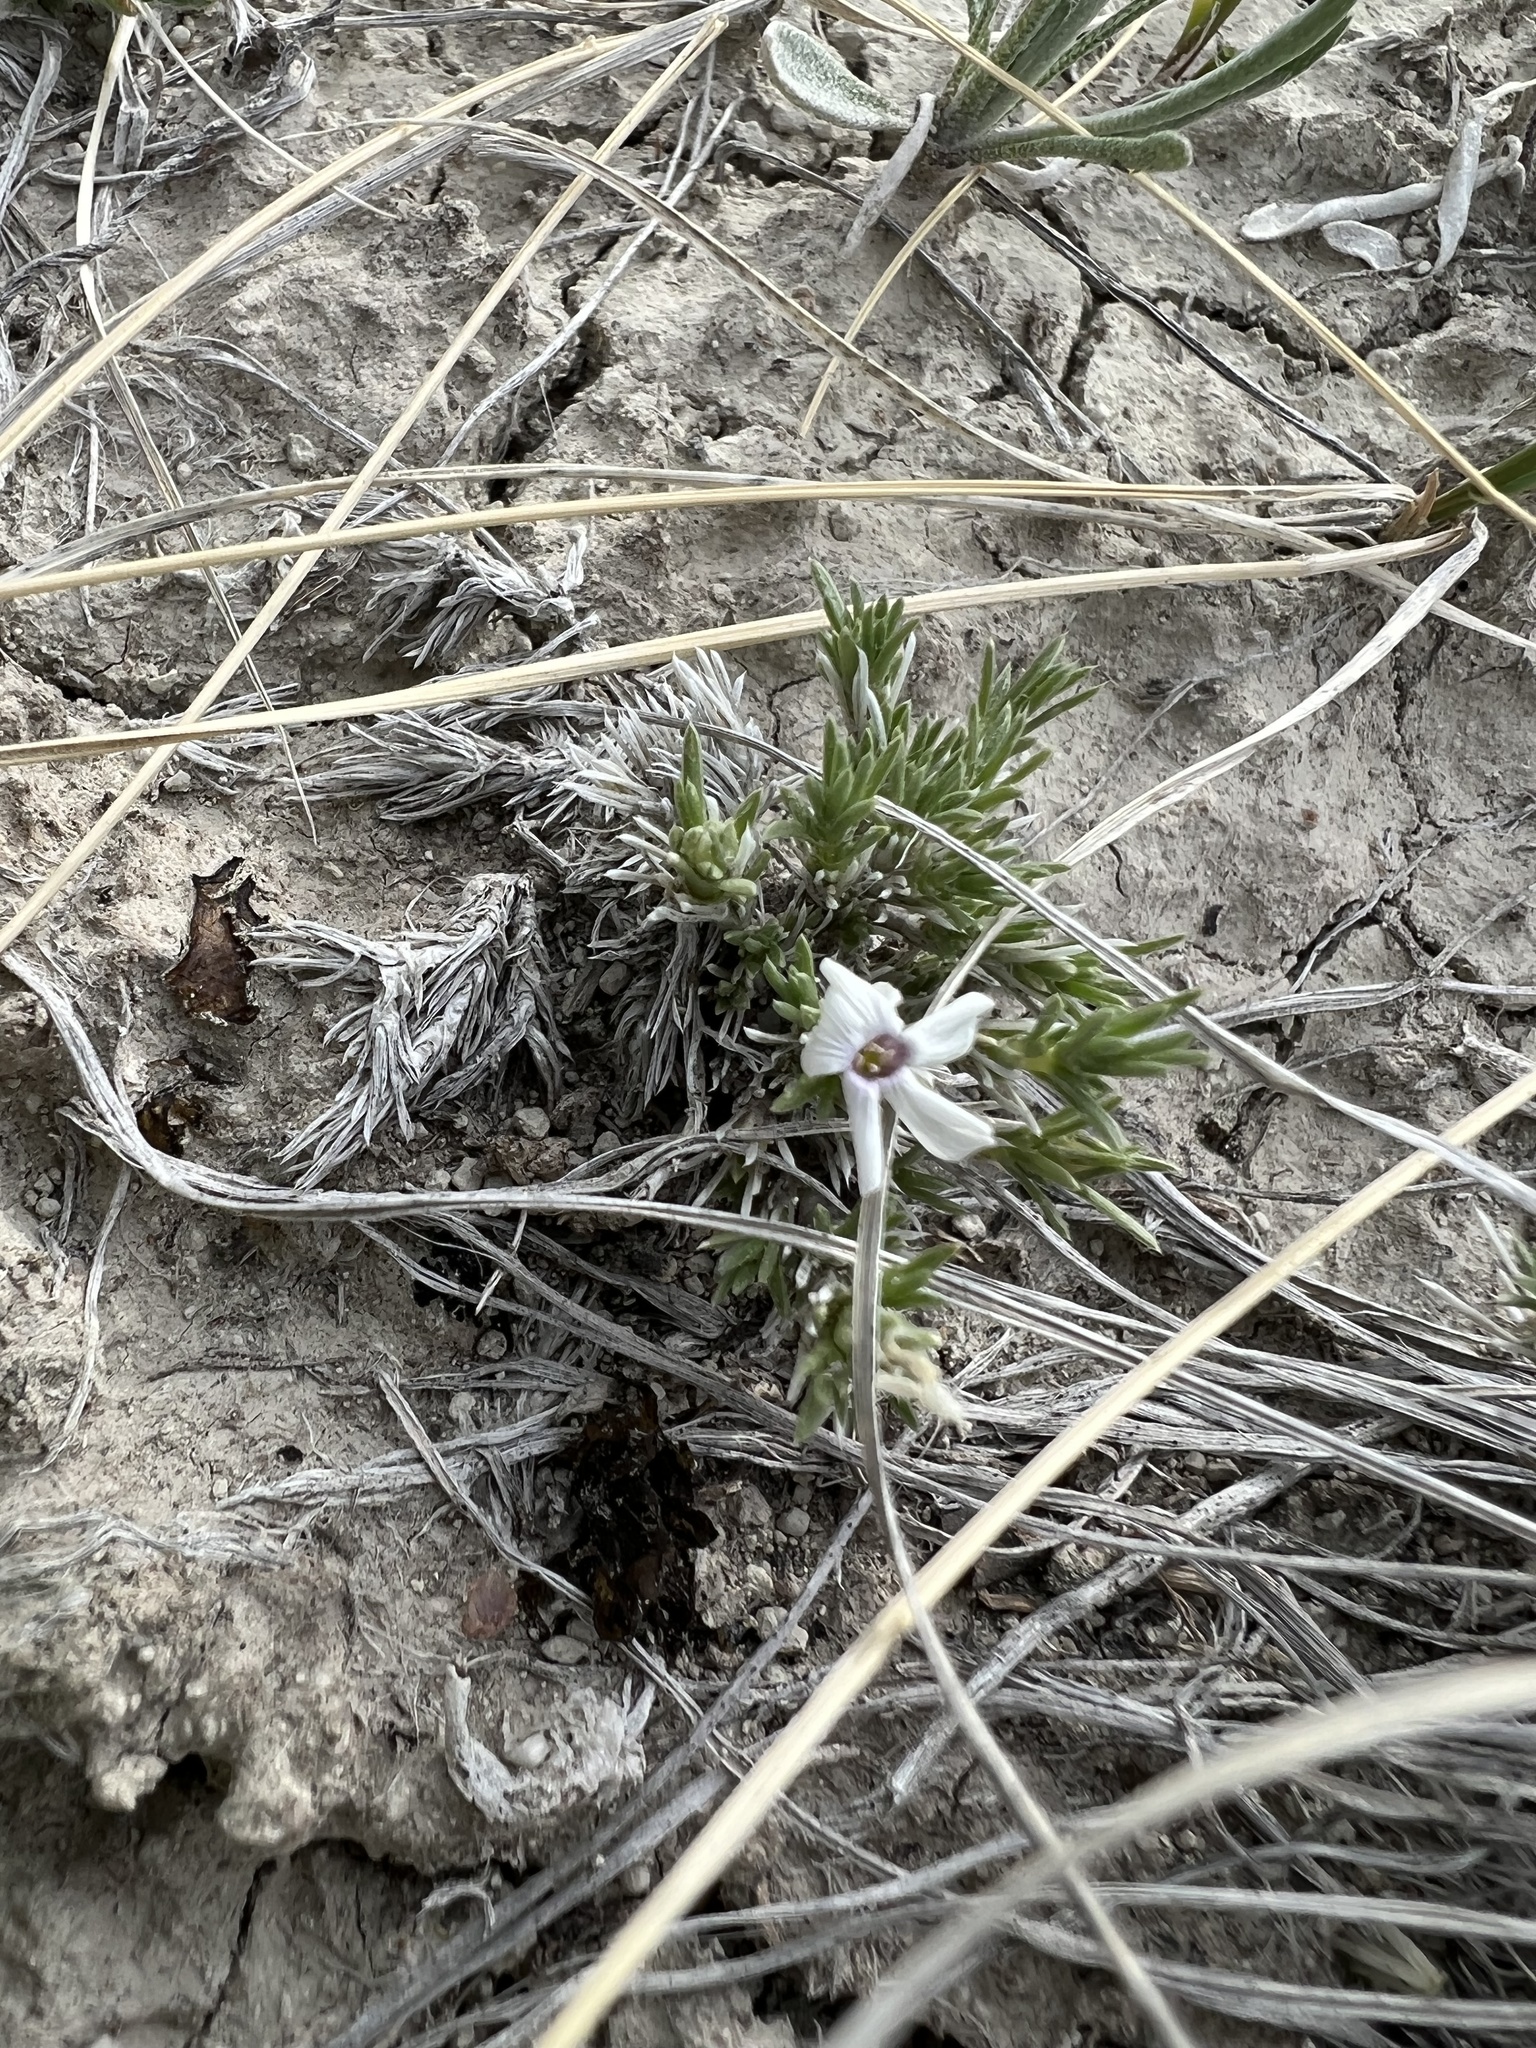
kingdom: Plantae
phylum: Tracheophyta
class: Magnoliopsida
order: Ericales
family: Polemoniaceae
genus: Phlox
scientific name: Phlox hoodii
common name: Moss phlox
